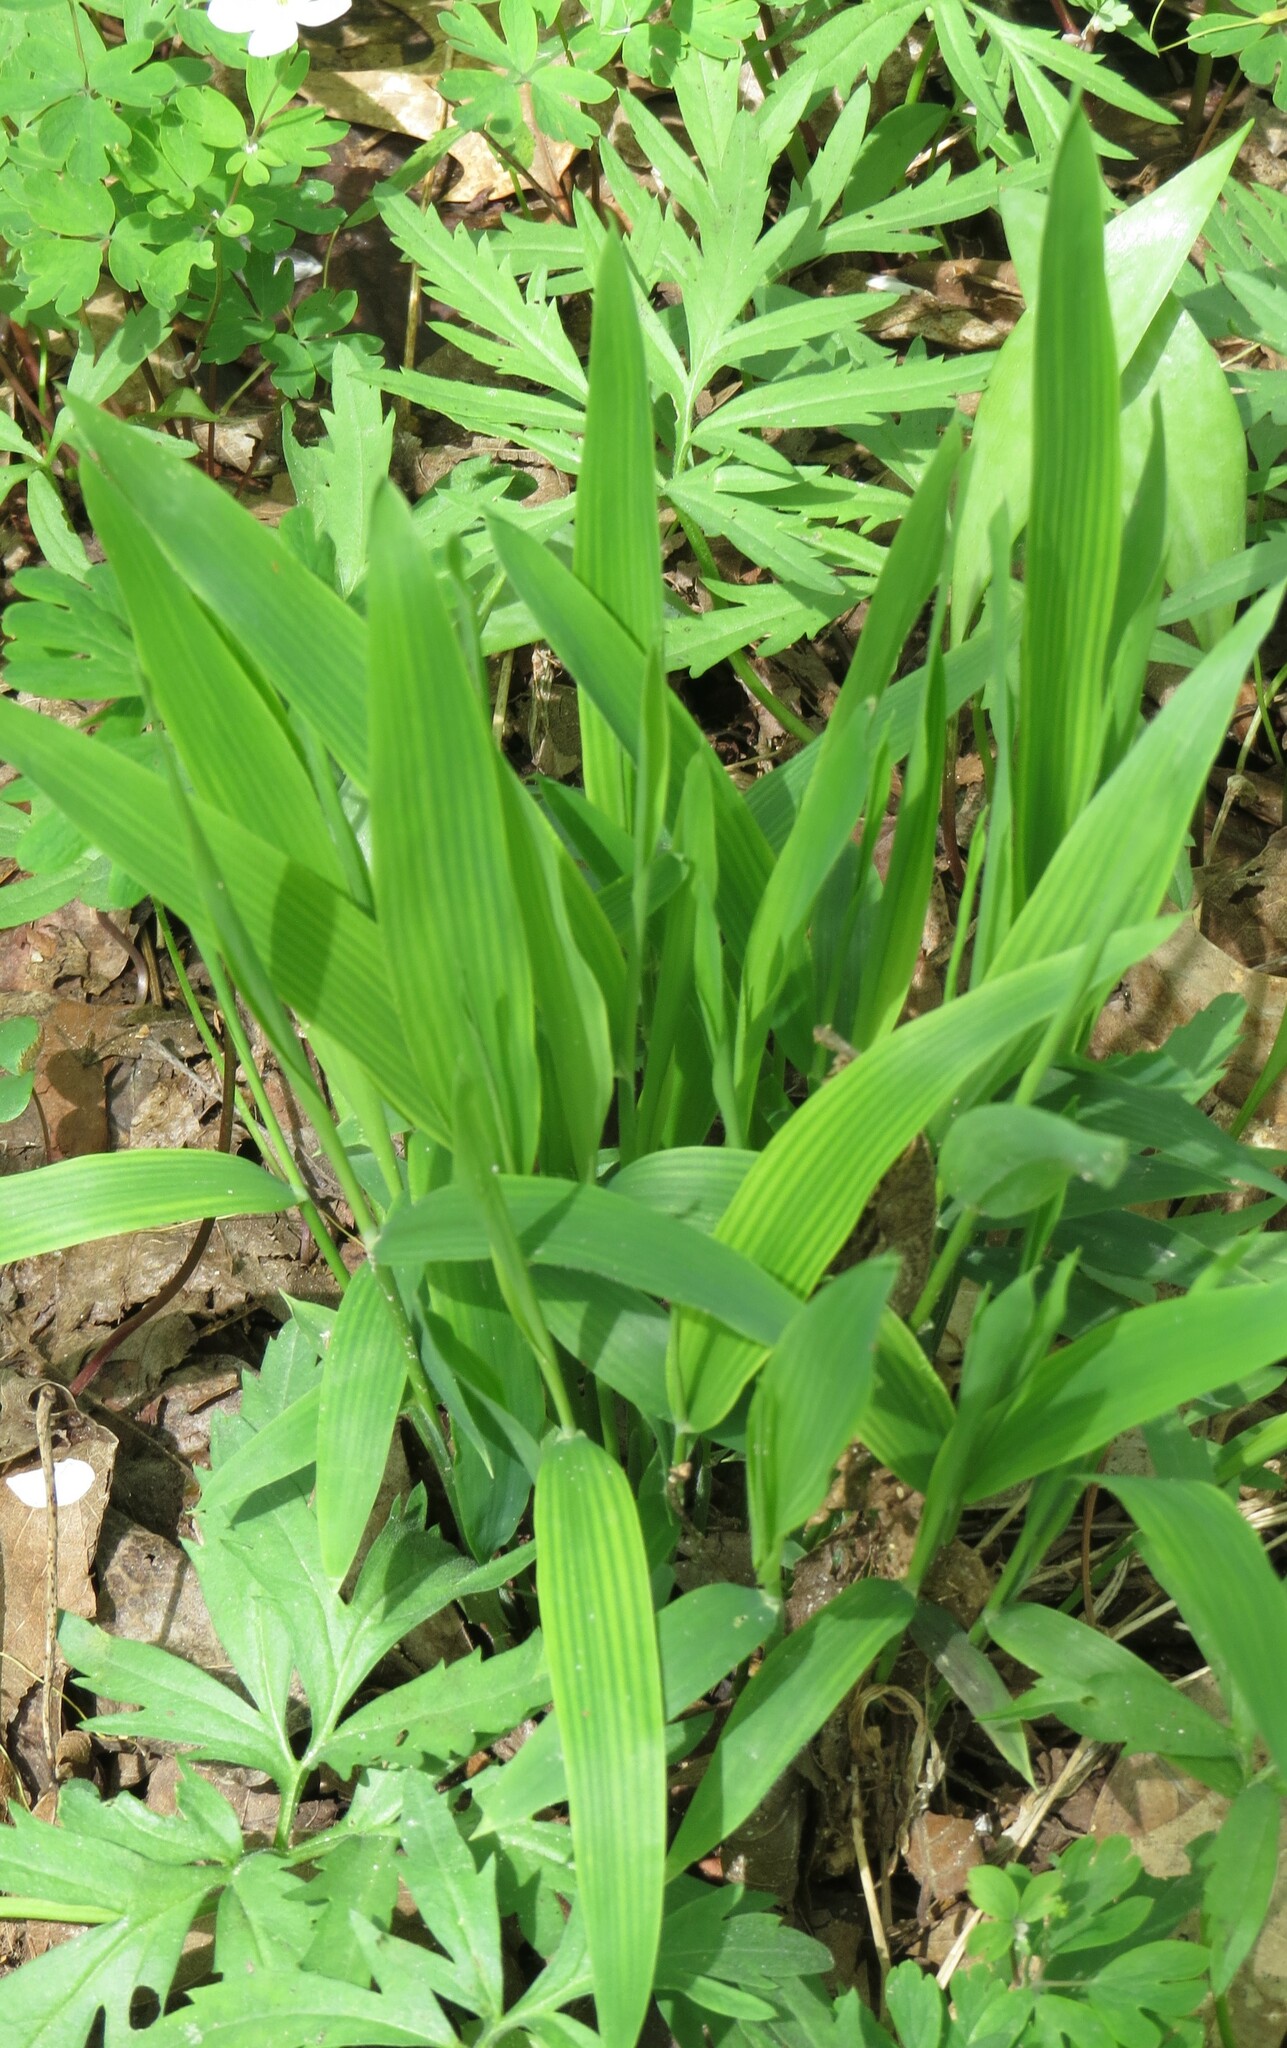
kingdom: Plantae
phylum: Tracheophyta
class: Liliopsida
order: Poales
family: Poaceae
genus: Dichanthelium
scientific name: Dichanthelium latifolium
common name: Broad-leaved panicgrass
